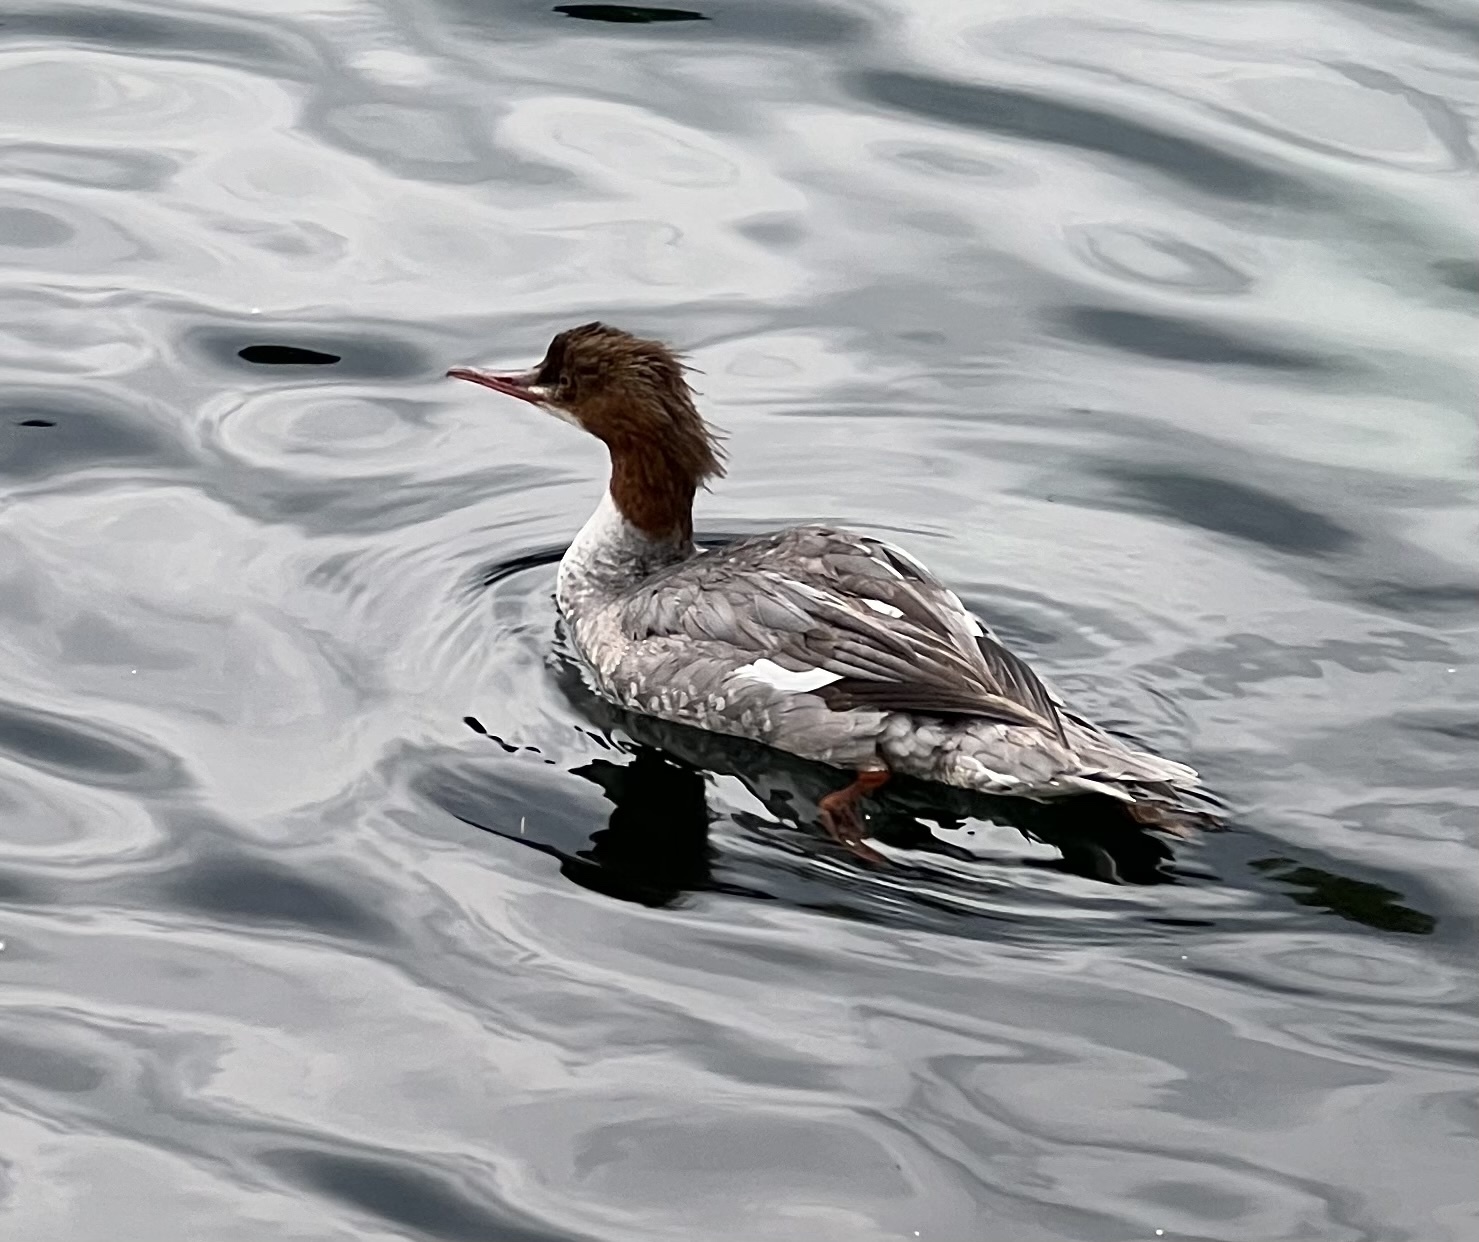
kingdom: Animalia
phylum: Chordata
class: Aves
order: Anseriformes
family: Anatidae
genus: Mergus
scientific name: Mergus merganser
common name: Common merganser
